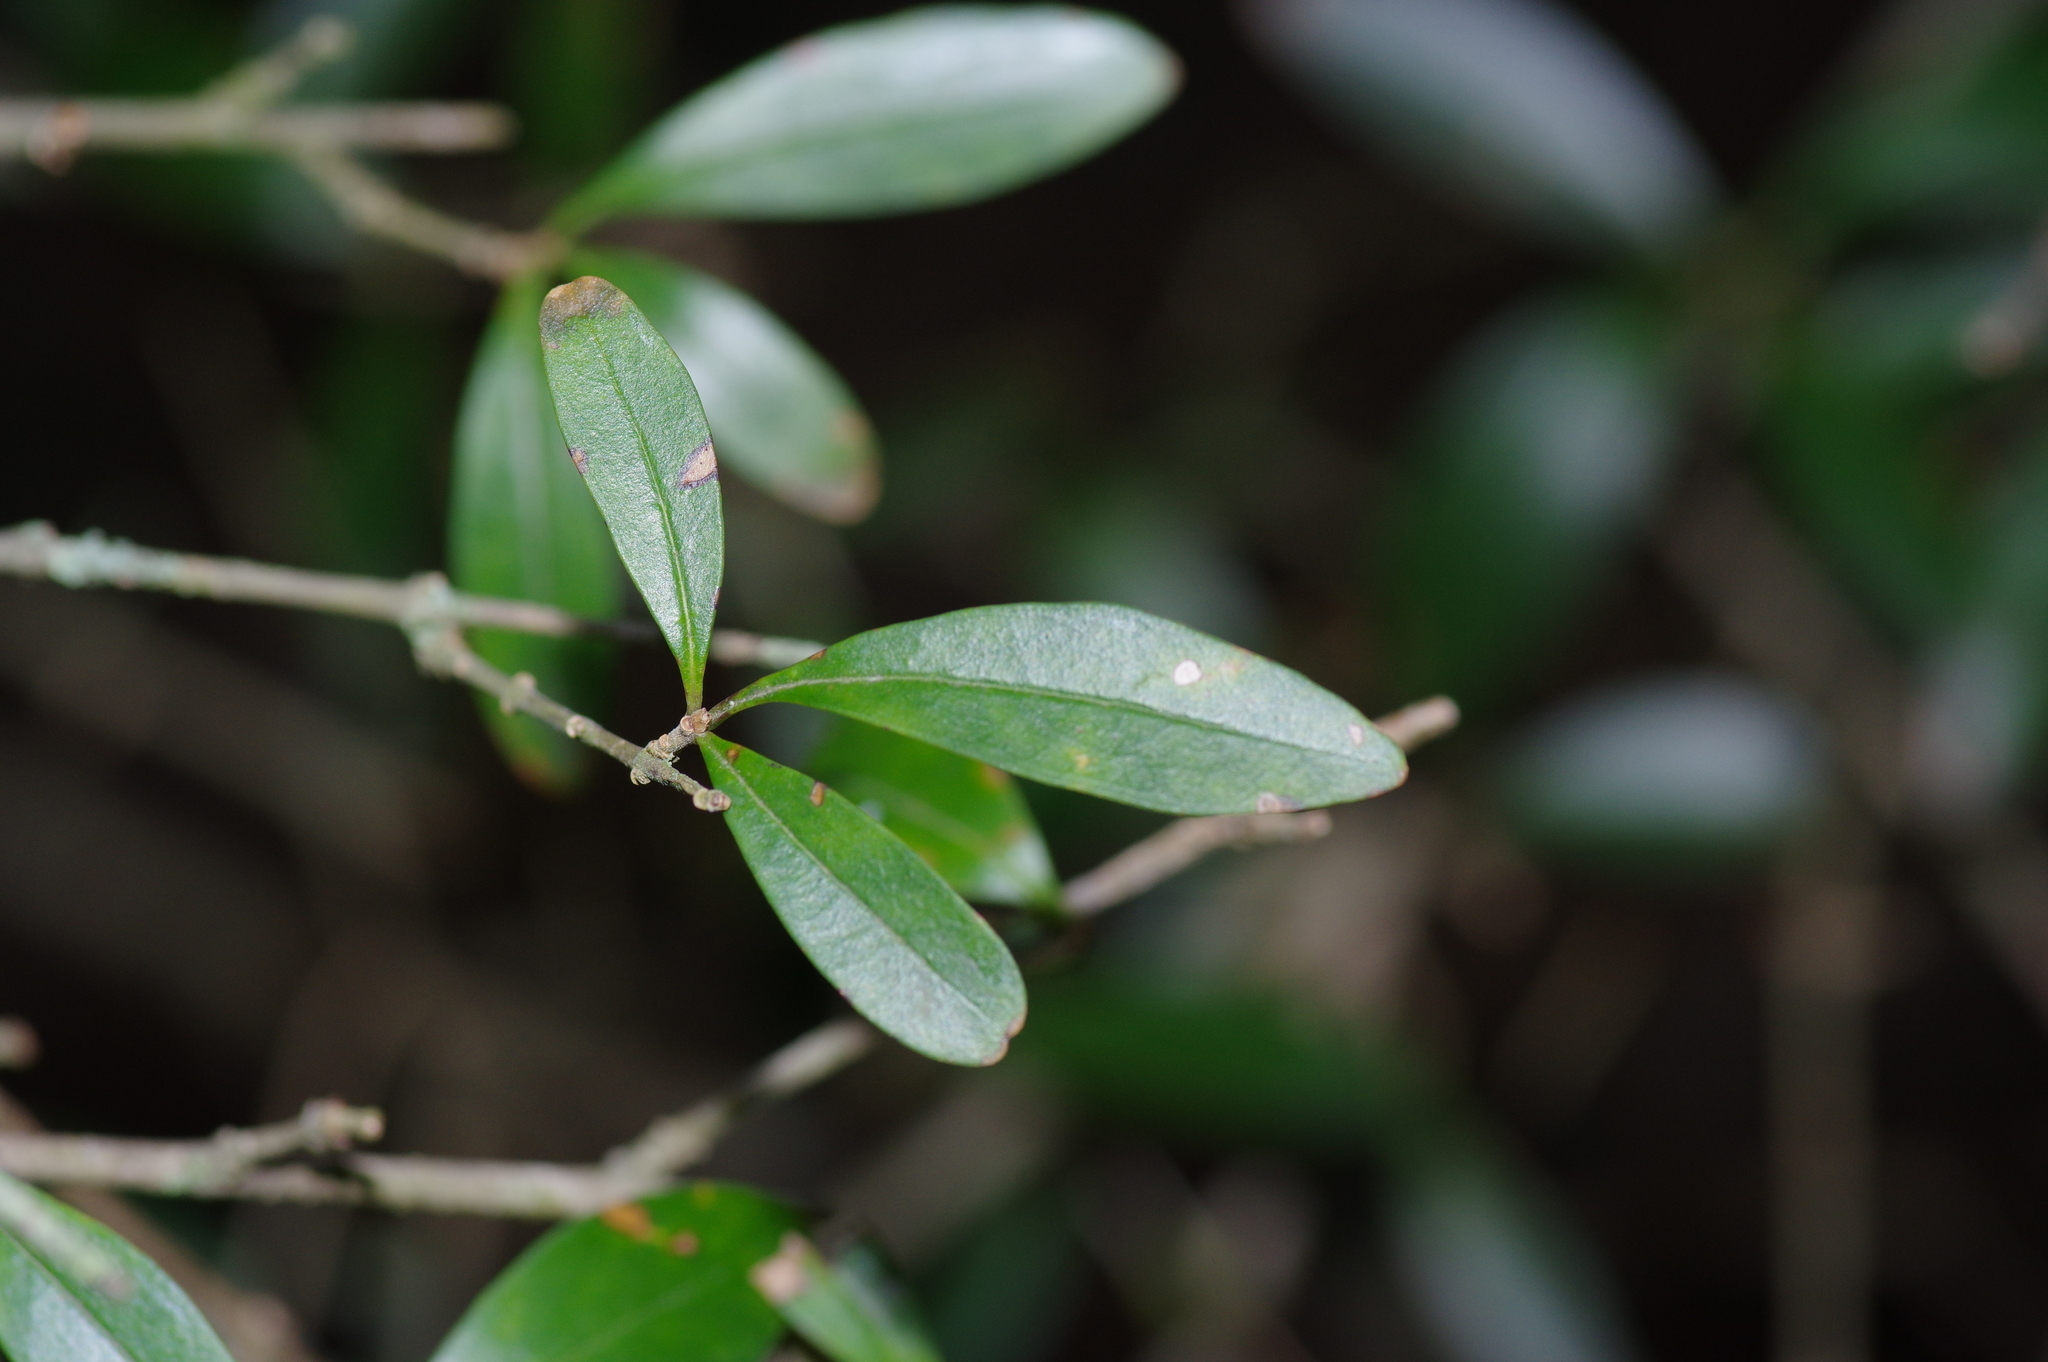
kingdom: Plantae
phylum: Tracheophyta
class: Magnoliopsida
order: Lamiales
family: Oleaceae
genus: Ligustrum
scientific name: Ligustrum quihoui
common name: Waxyleaf privet
